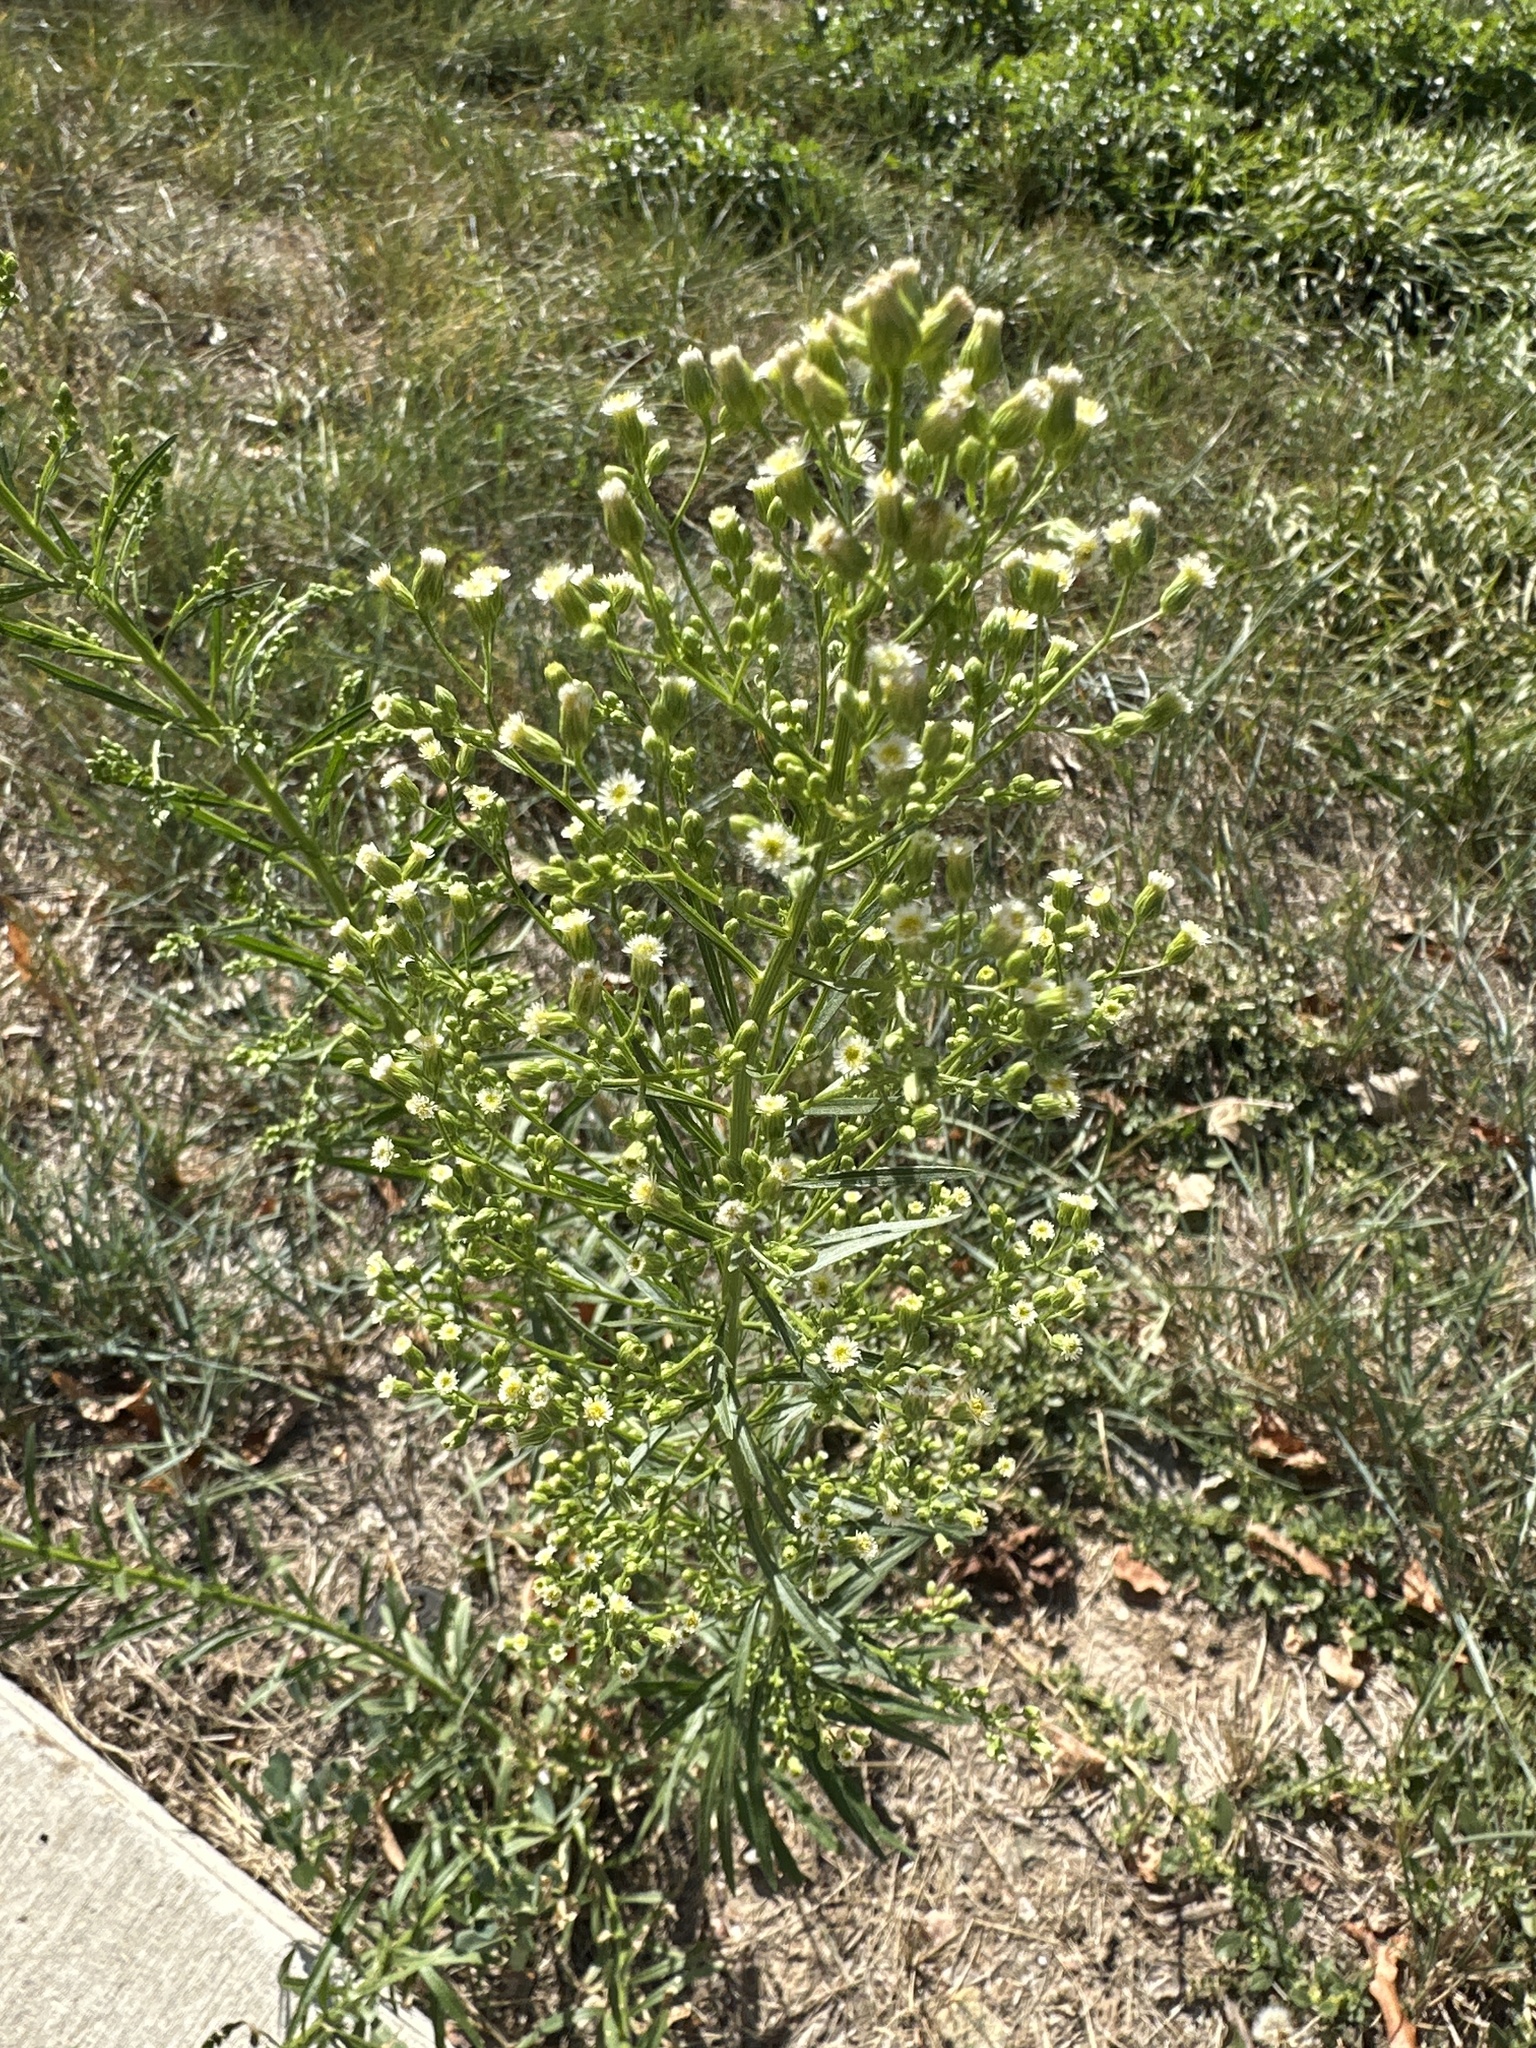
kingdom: Plantae
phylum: Tracheophyta
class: Magnoliopsida
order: Asterales
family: Asteraceae
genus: Erigeron
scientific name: Erigeron canadensis
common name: Canadian fleabane
